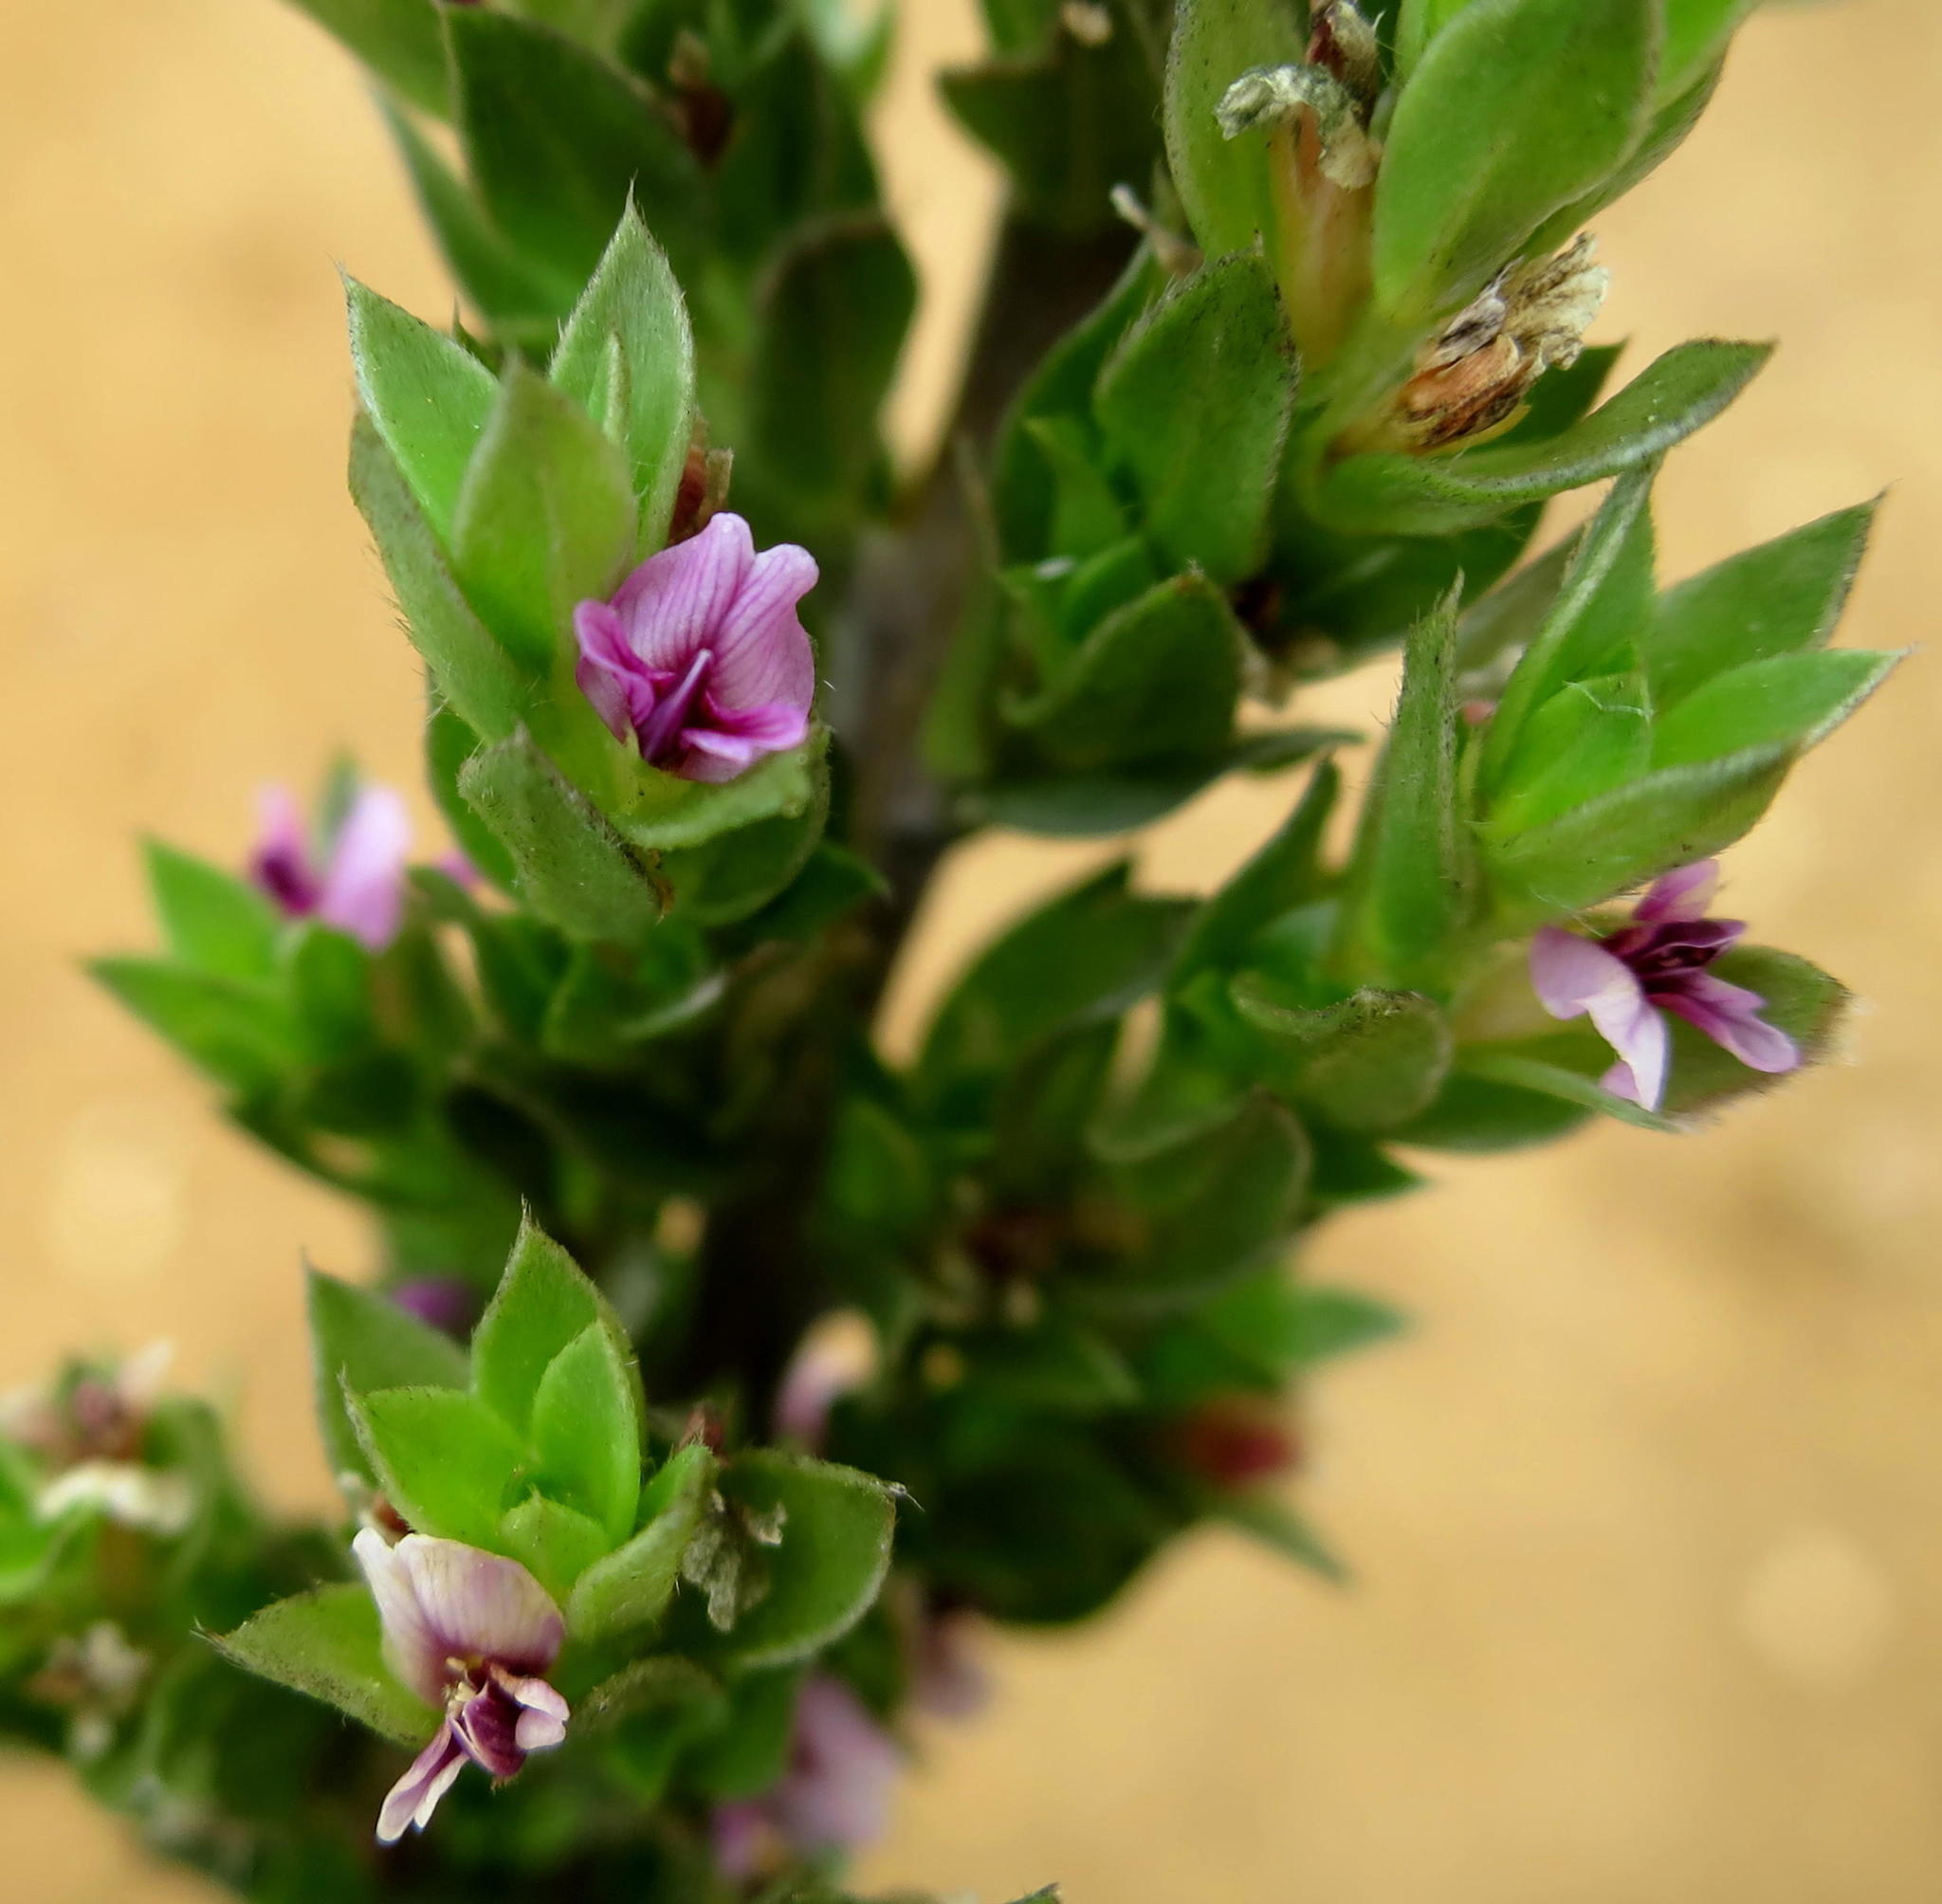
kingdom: Plantae
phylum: Tracheophyta
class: Magnoliopsida
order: Fabales
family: Fabaceae
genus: Amphithalea
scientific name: Amphithalea fourcadei
